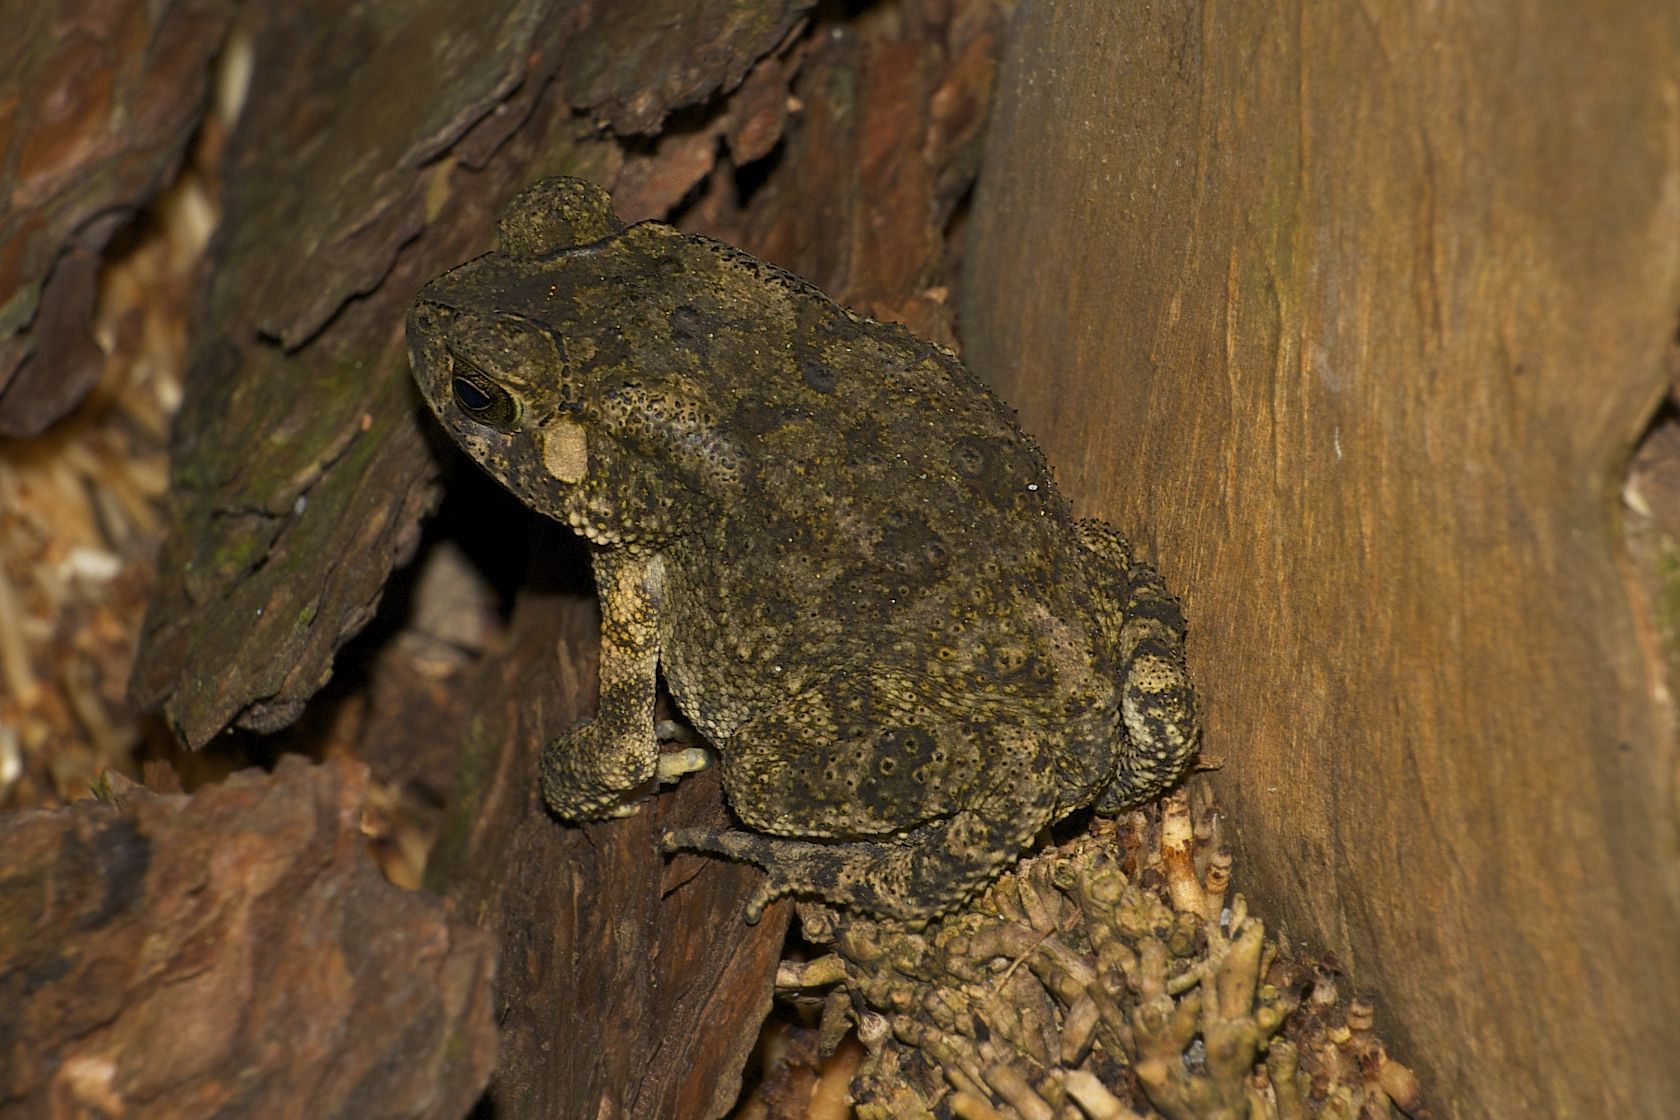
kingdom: Animalia
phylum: Chordata
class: Amphibia
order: Anura
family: Bufonidae
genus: Duttaphrynus
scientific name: Duttaphrynus melanostictus
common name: Common sunda toad
